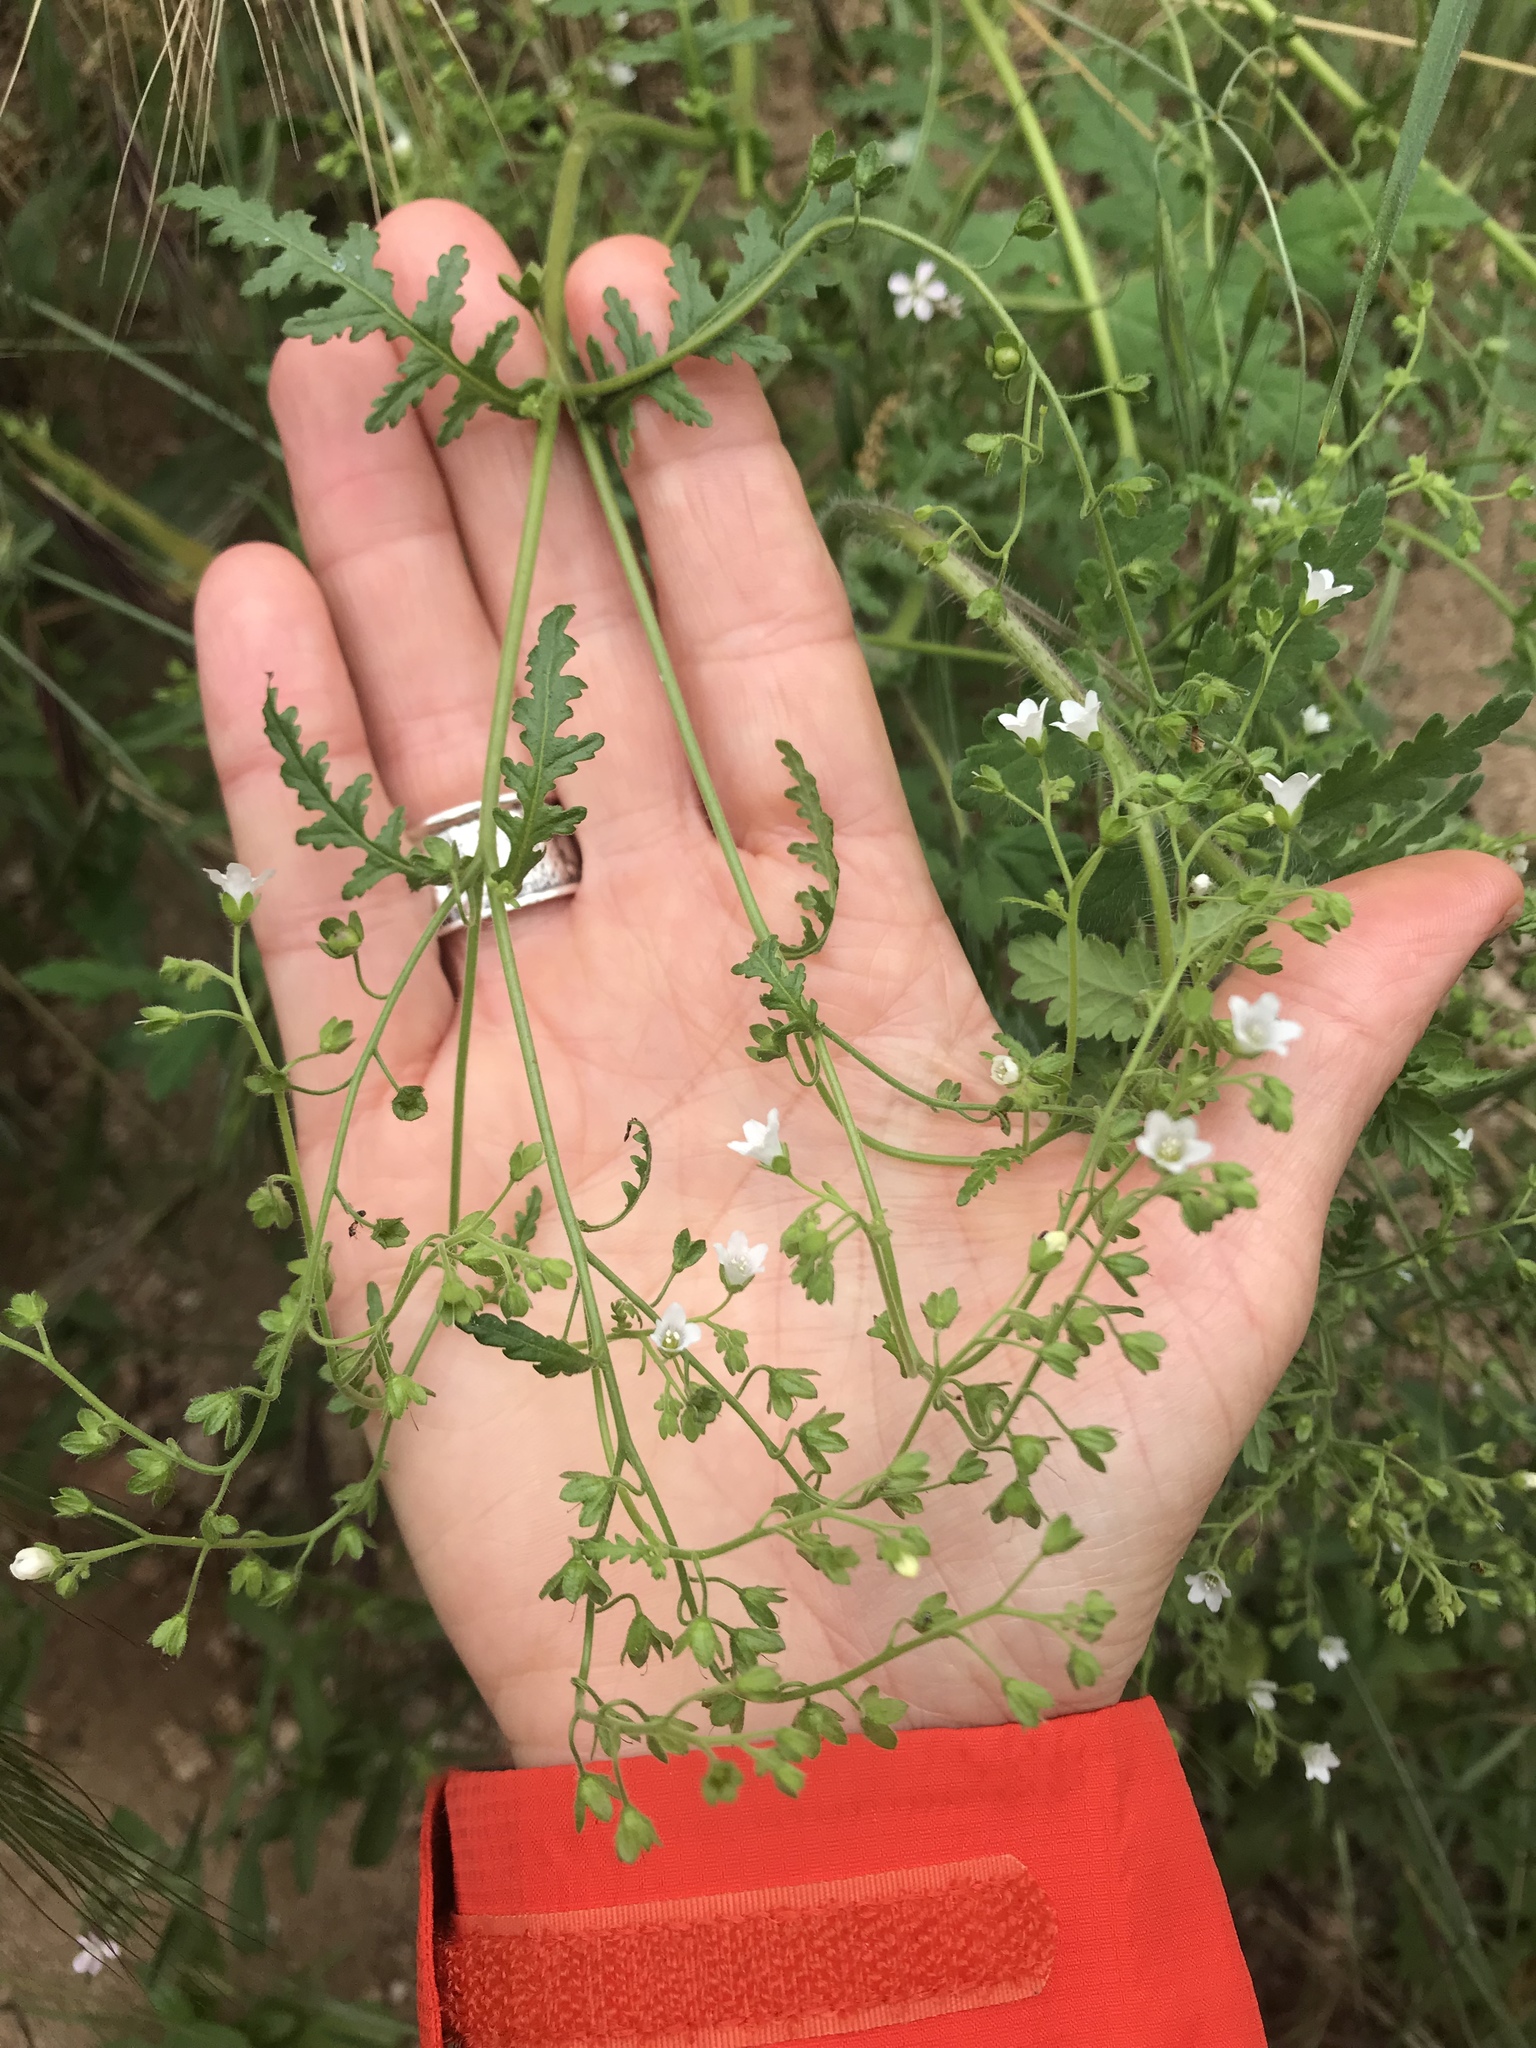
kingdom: Plantae
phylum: Tracheophyta
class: Magnoliopsida
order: Boraginales
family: Hydrophyllaceae
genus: Eucrypta
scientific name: Eucrypta chrysanthemifolia
